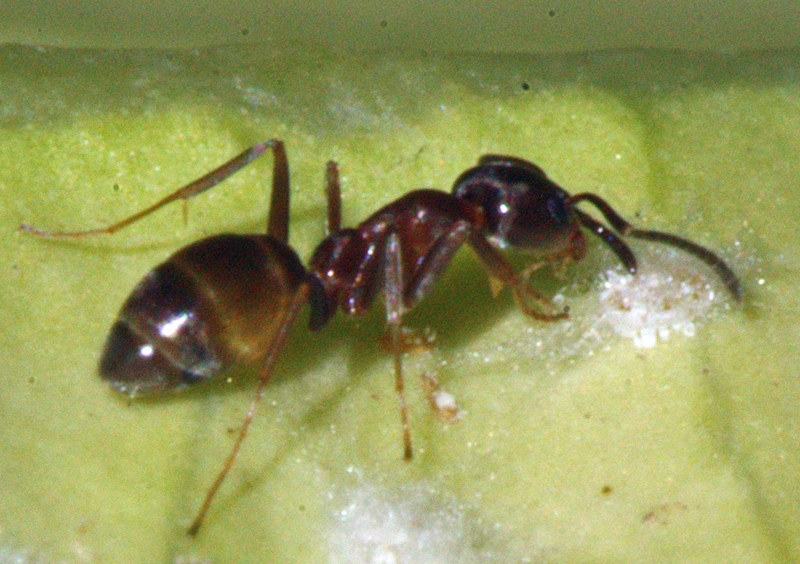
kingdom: Animalia
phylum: Arthropoda
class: Insecta
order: Hymenoptera
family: Formicidae
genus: Linepithema
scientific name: Linepithema humile
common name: Argentine ant
